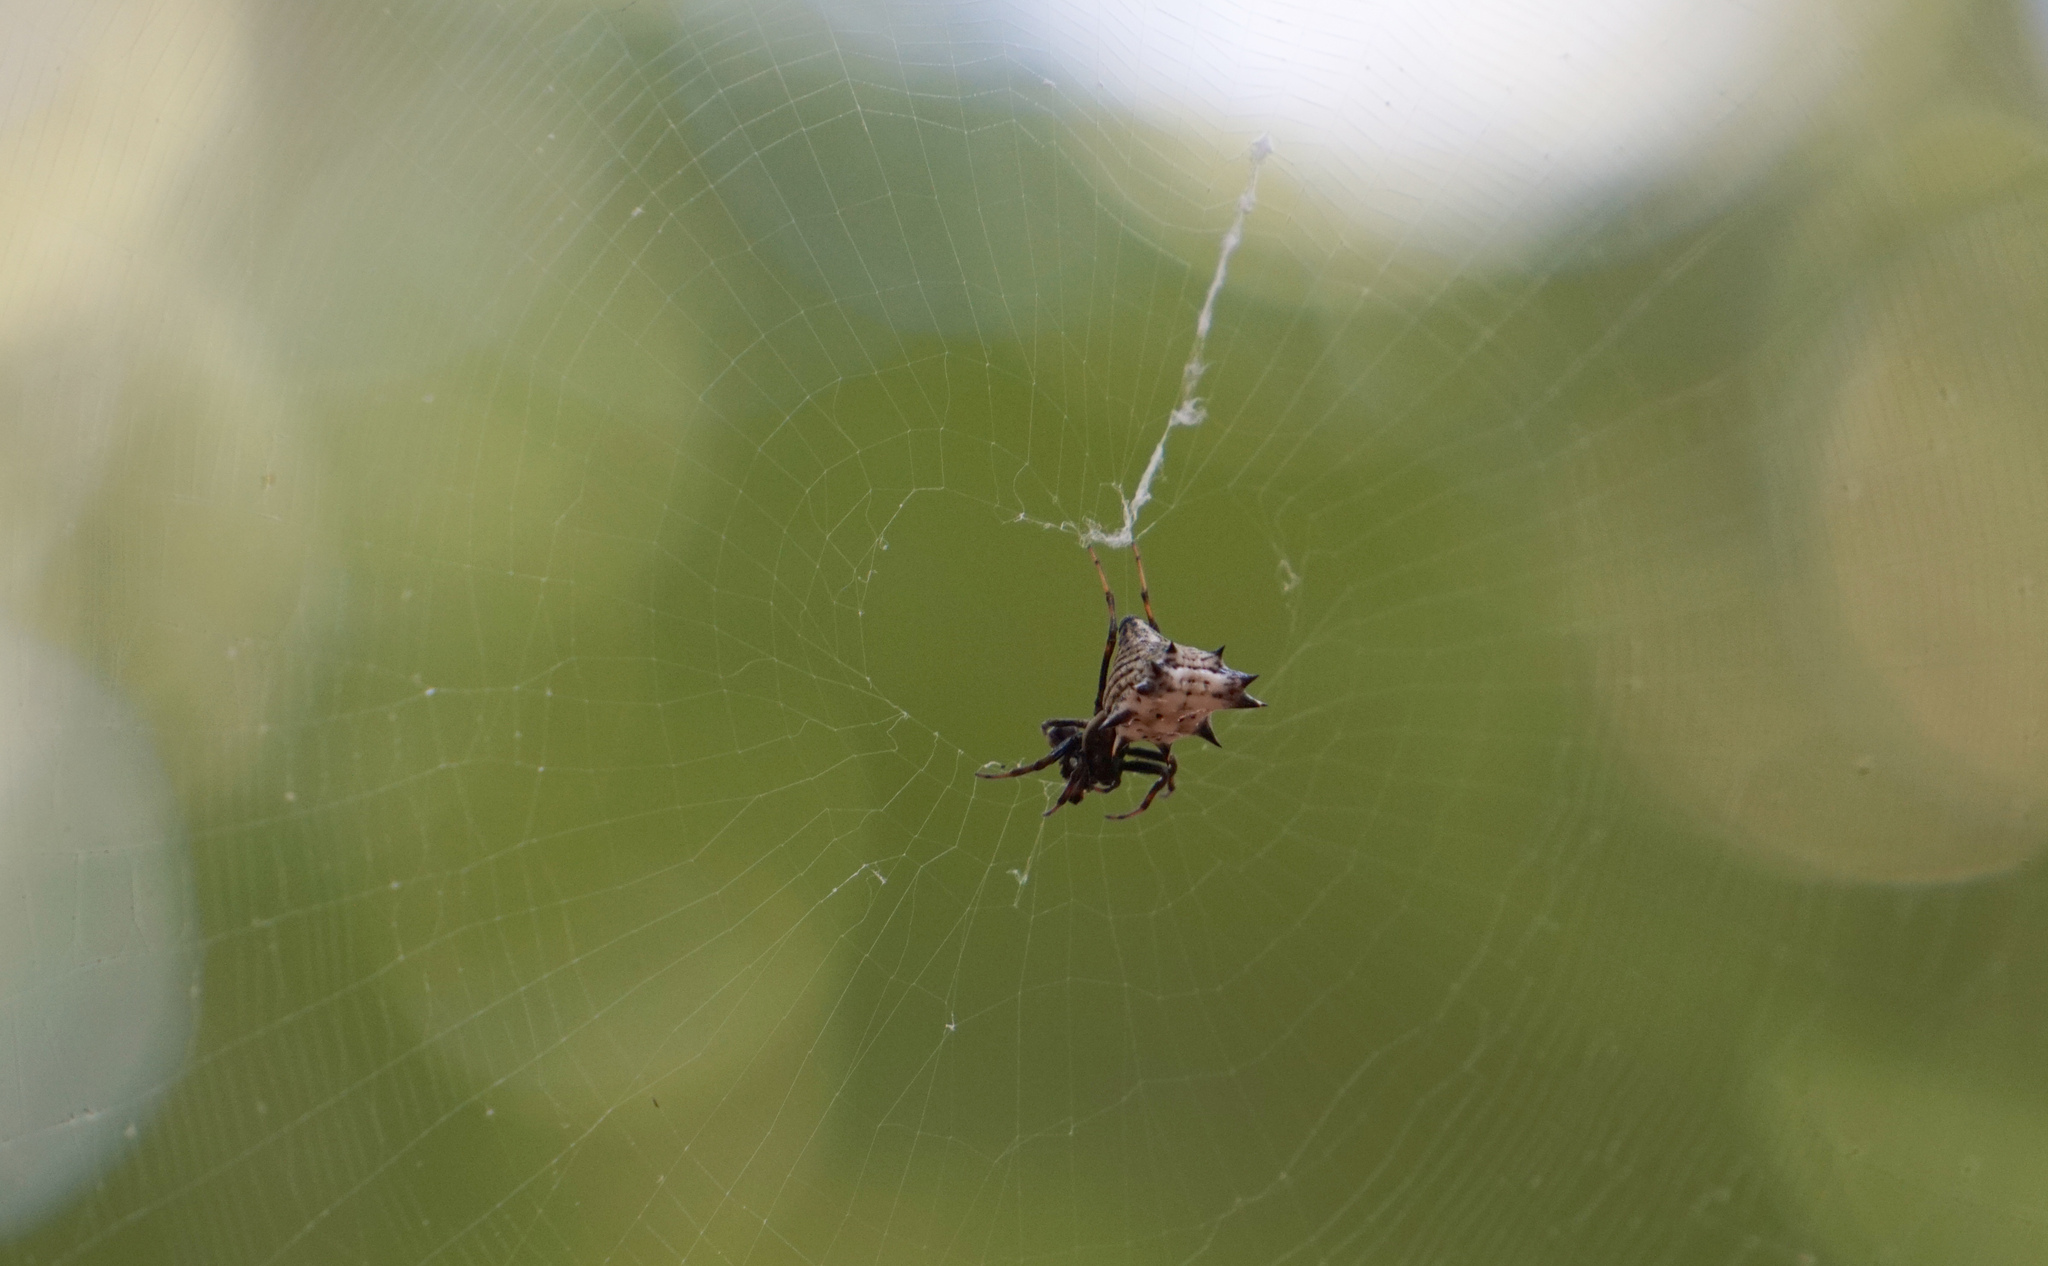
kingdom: Animalia
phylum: Arthropoda
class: Arachnida
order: Araneae
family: Araneidae
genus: Micrathena
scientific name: Micrathena gracilis
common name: Orb weavers
